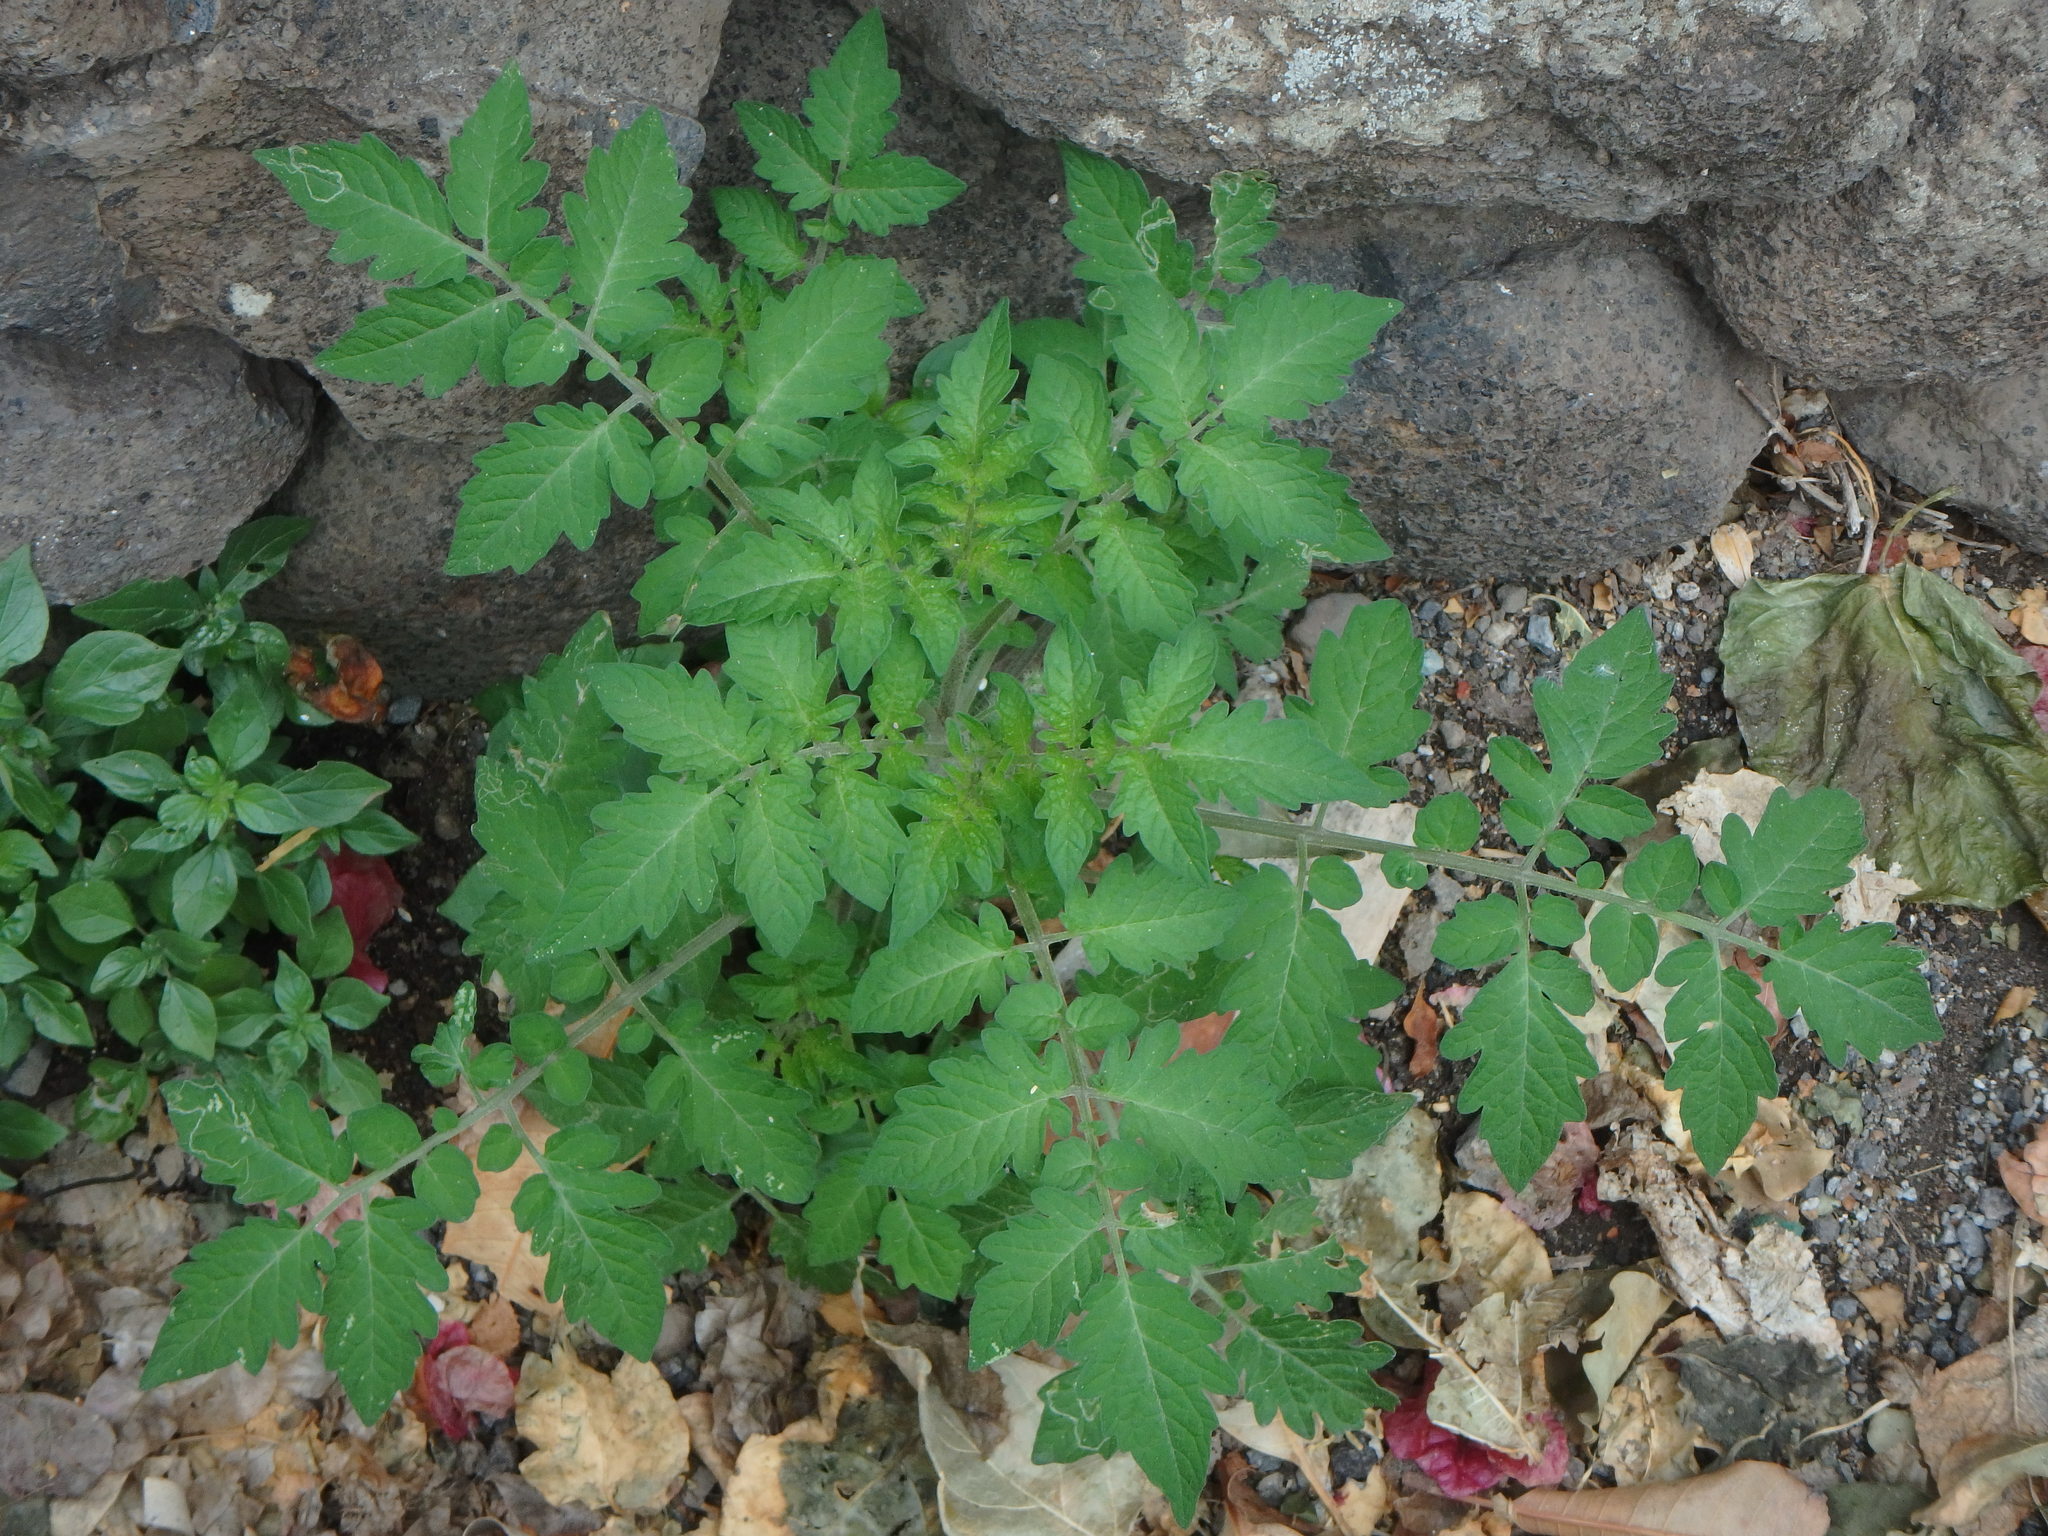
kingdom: Plantae
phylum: Tracheophyta
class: Magnoliopsida
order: Solanales
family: Solanaceae
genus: Solanum
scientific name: Solanum lycopersicum
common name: Garden tomato
